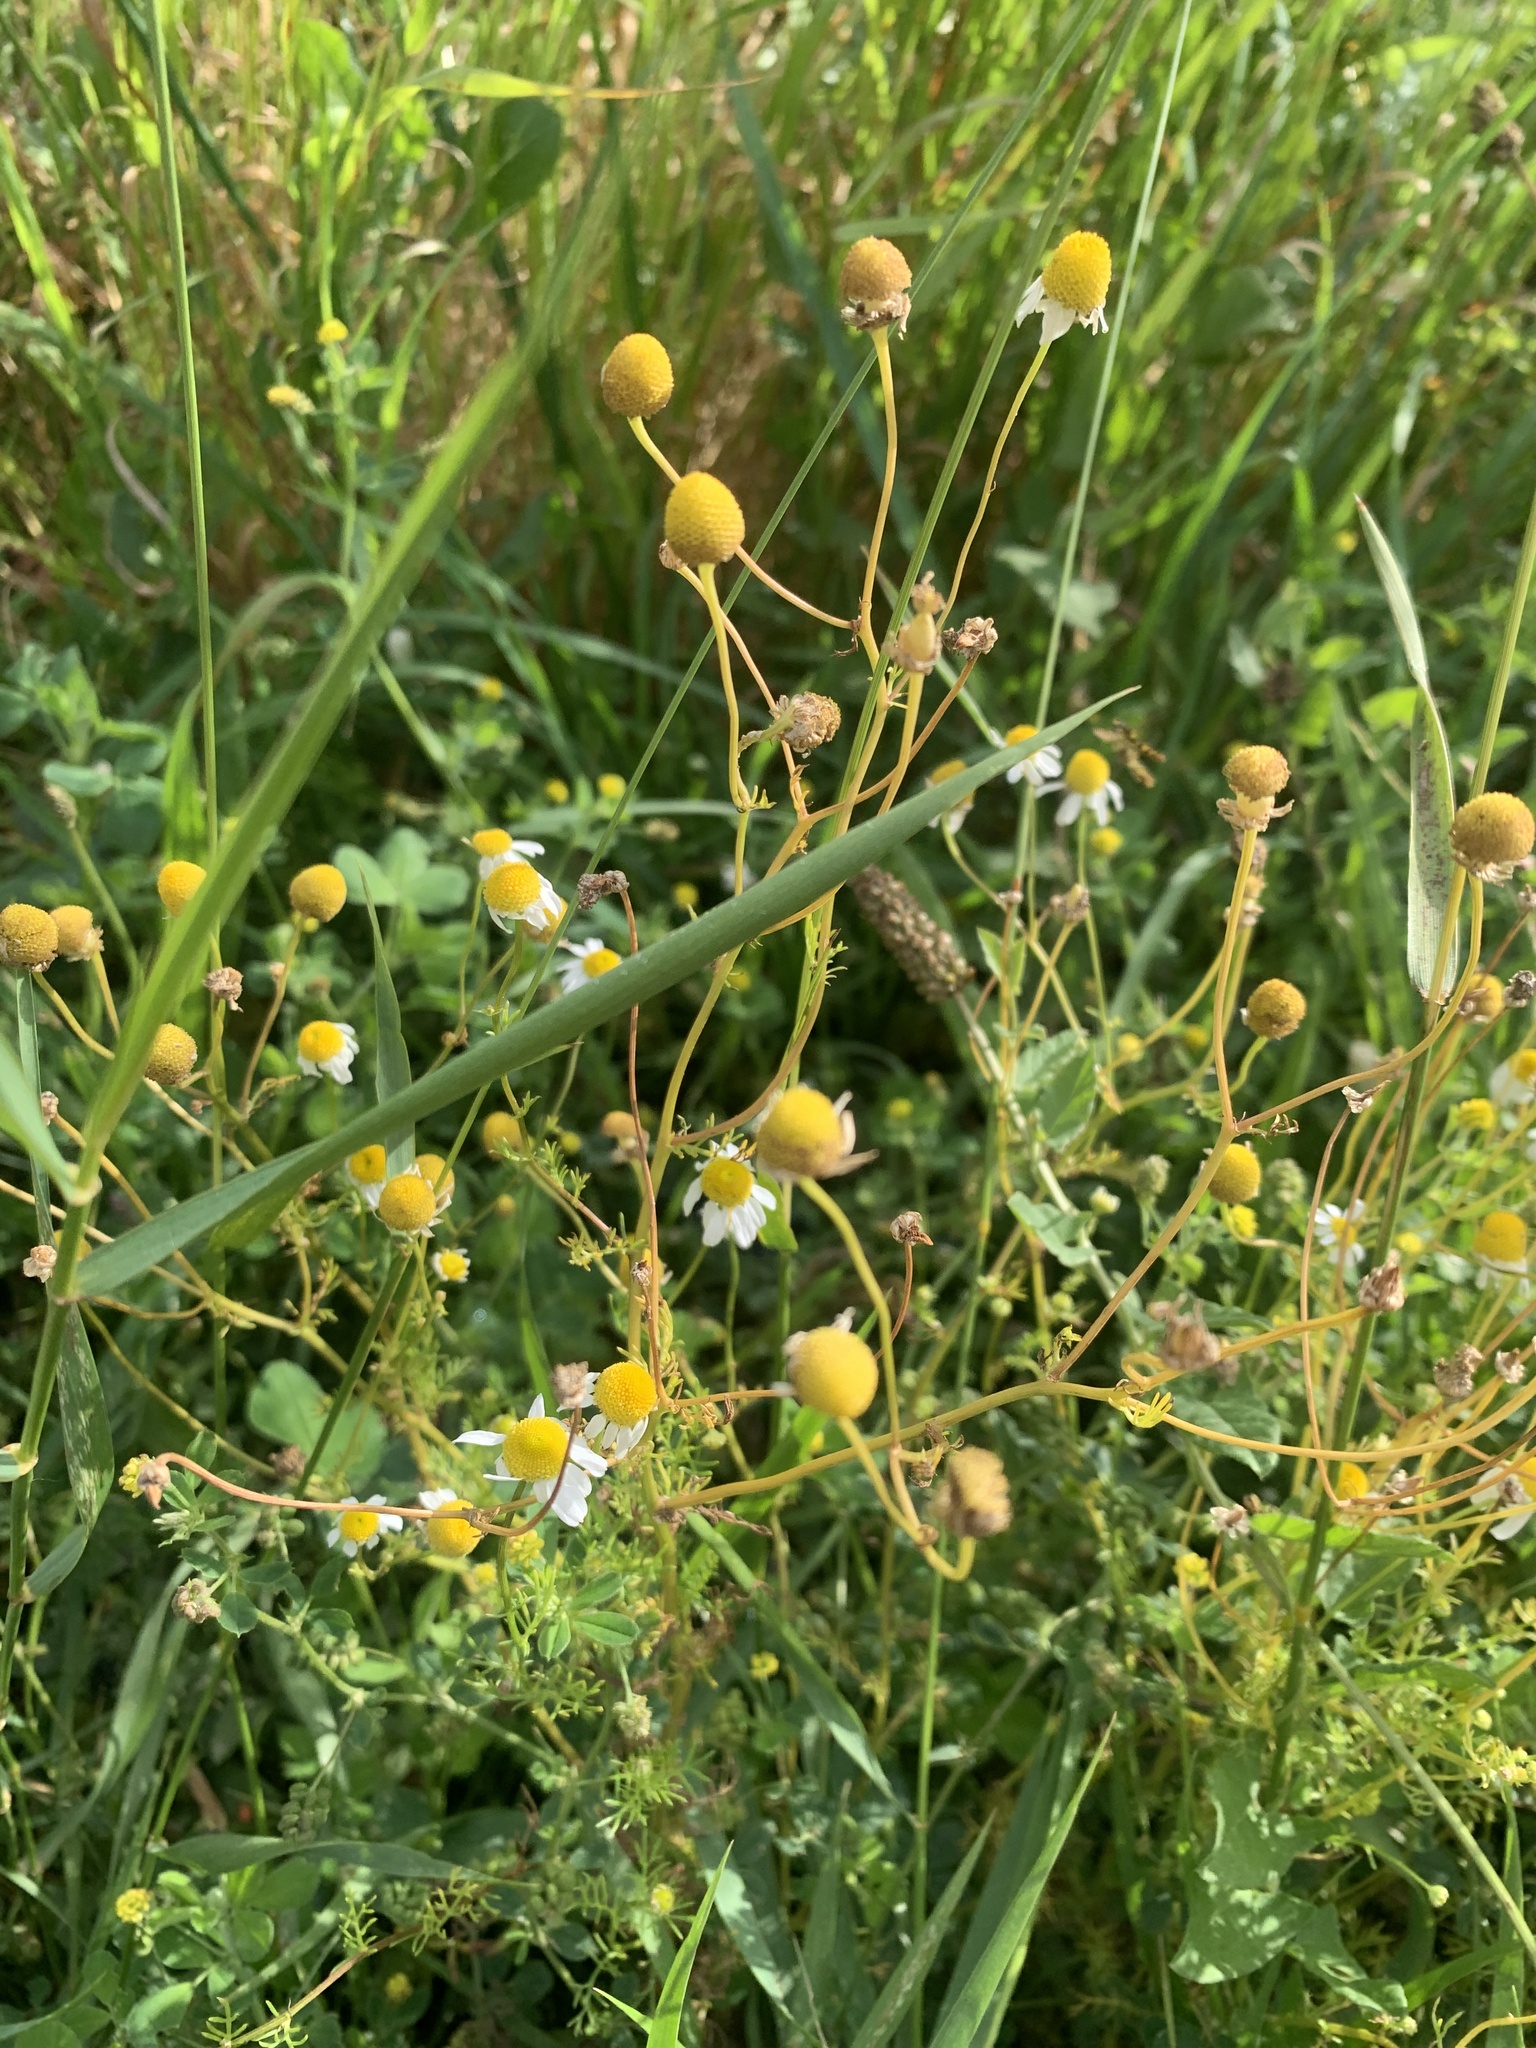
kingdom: Plantae
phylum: Tracheophyta
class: Magnoliopsida
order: Asterales
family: Asteraceae
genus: Matricaria
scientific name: Matricaria chamomilla
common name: Scented mayweed
